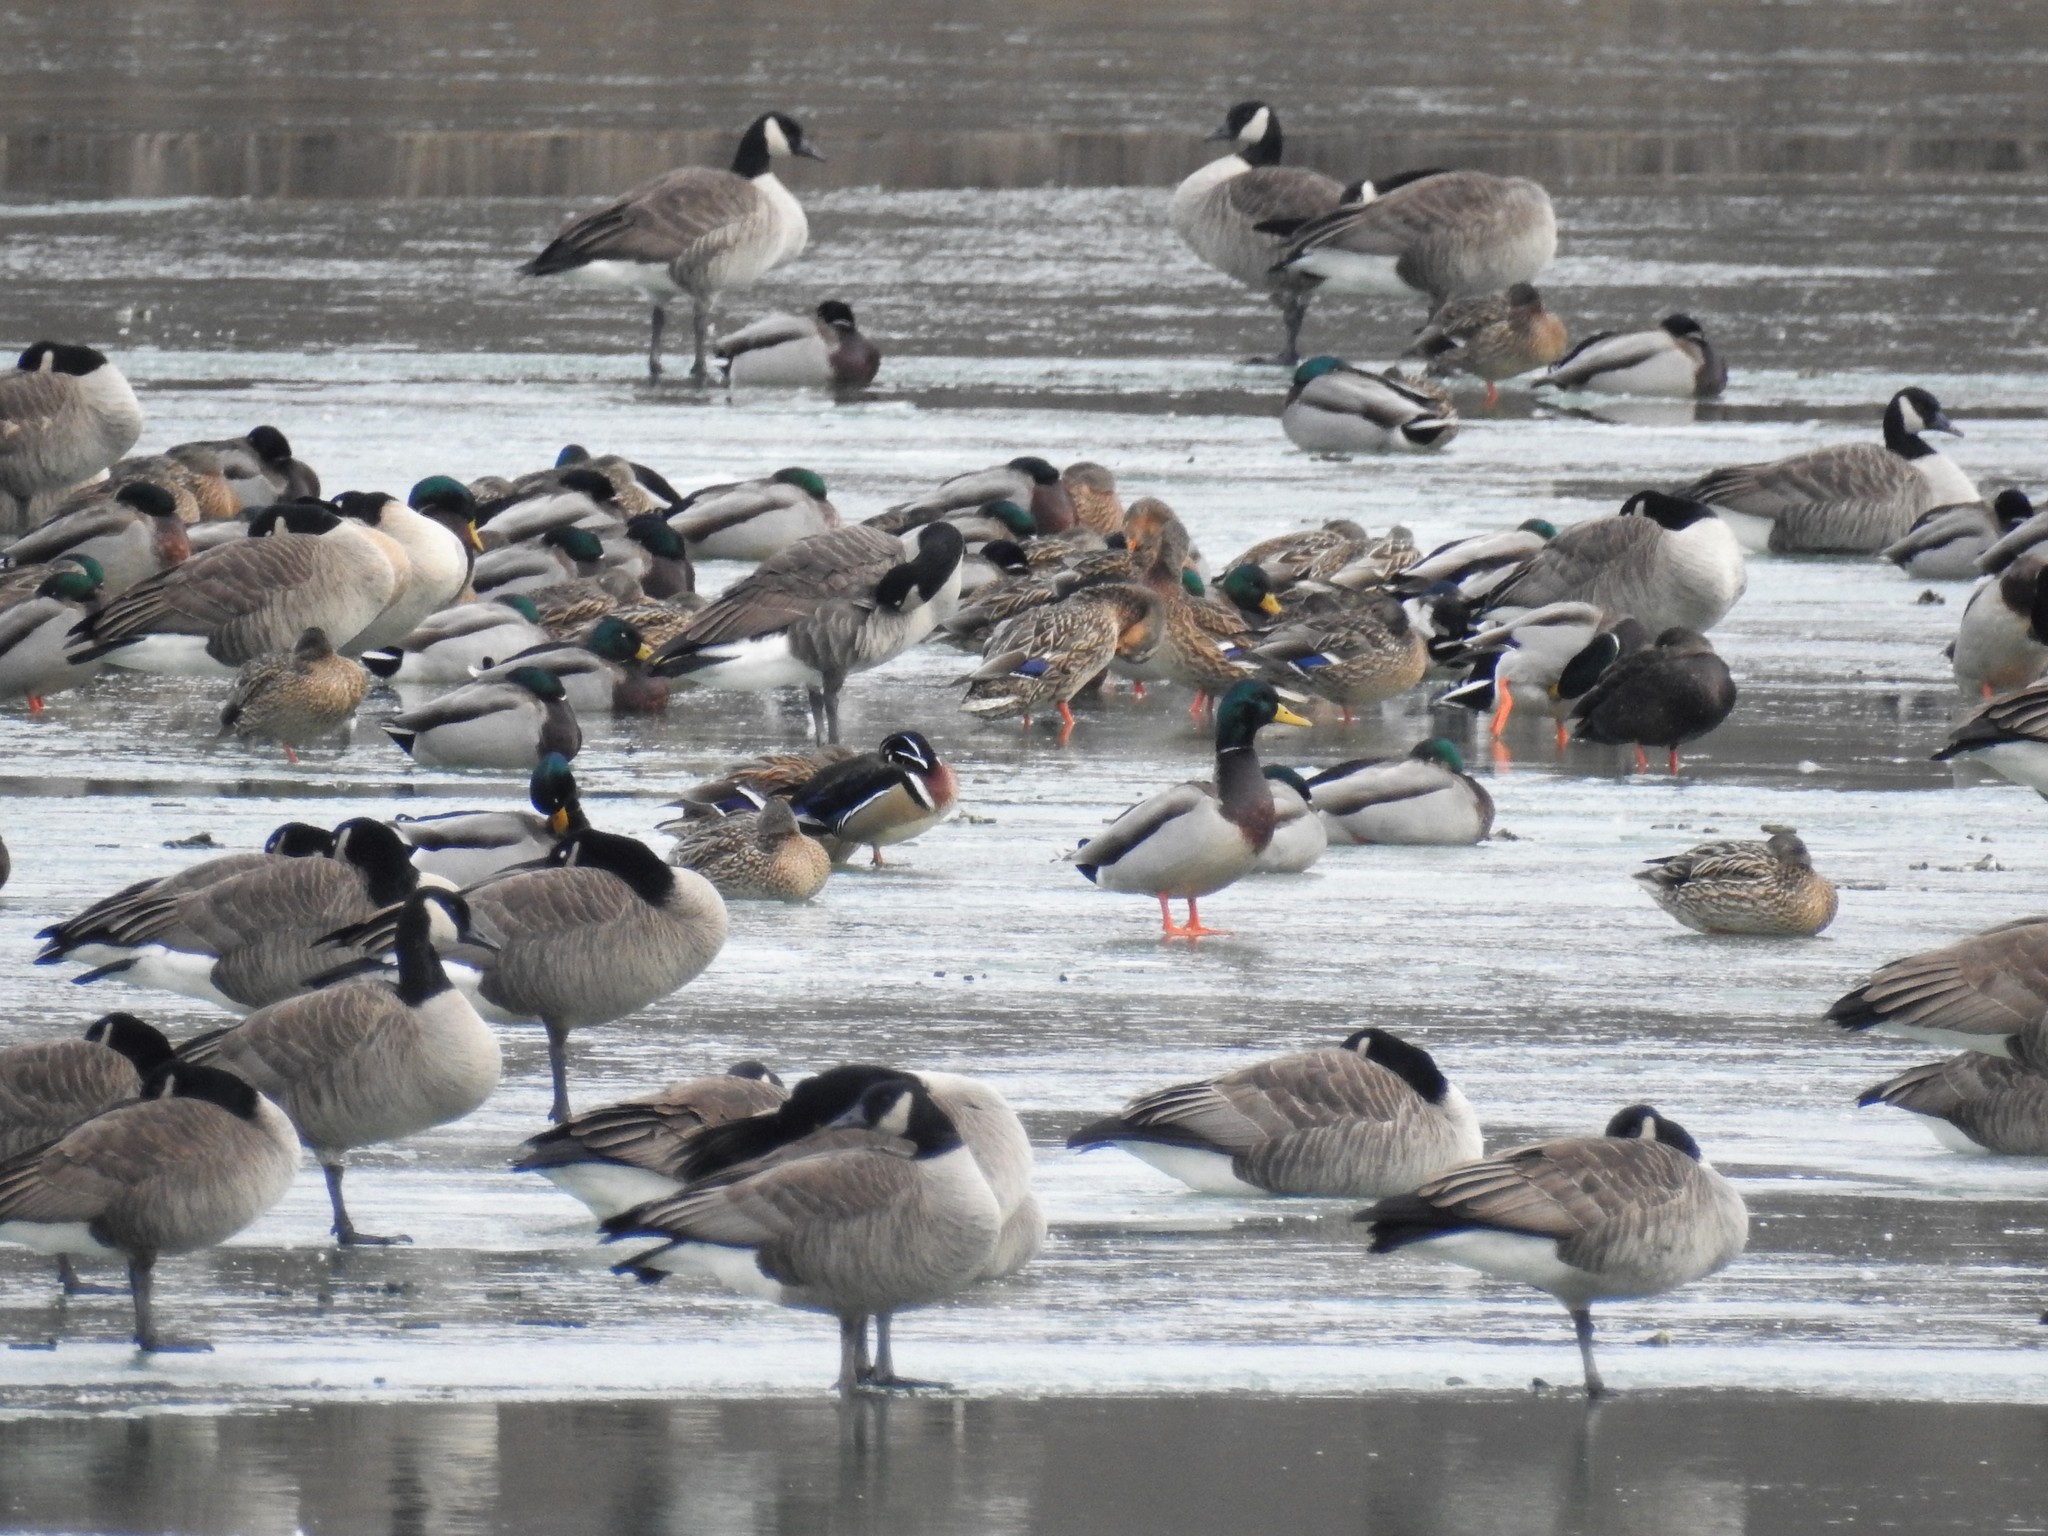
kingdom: Animalia
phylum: Chordata
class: Aves
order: Anseriformes
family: Anatidae
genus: Aix
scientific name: Aix sponsa
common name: Wood duck
